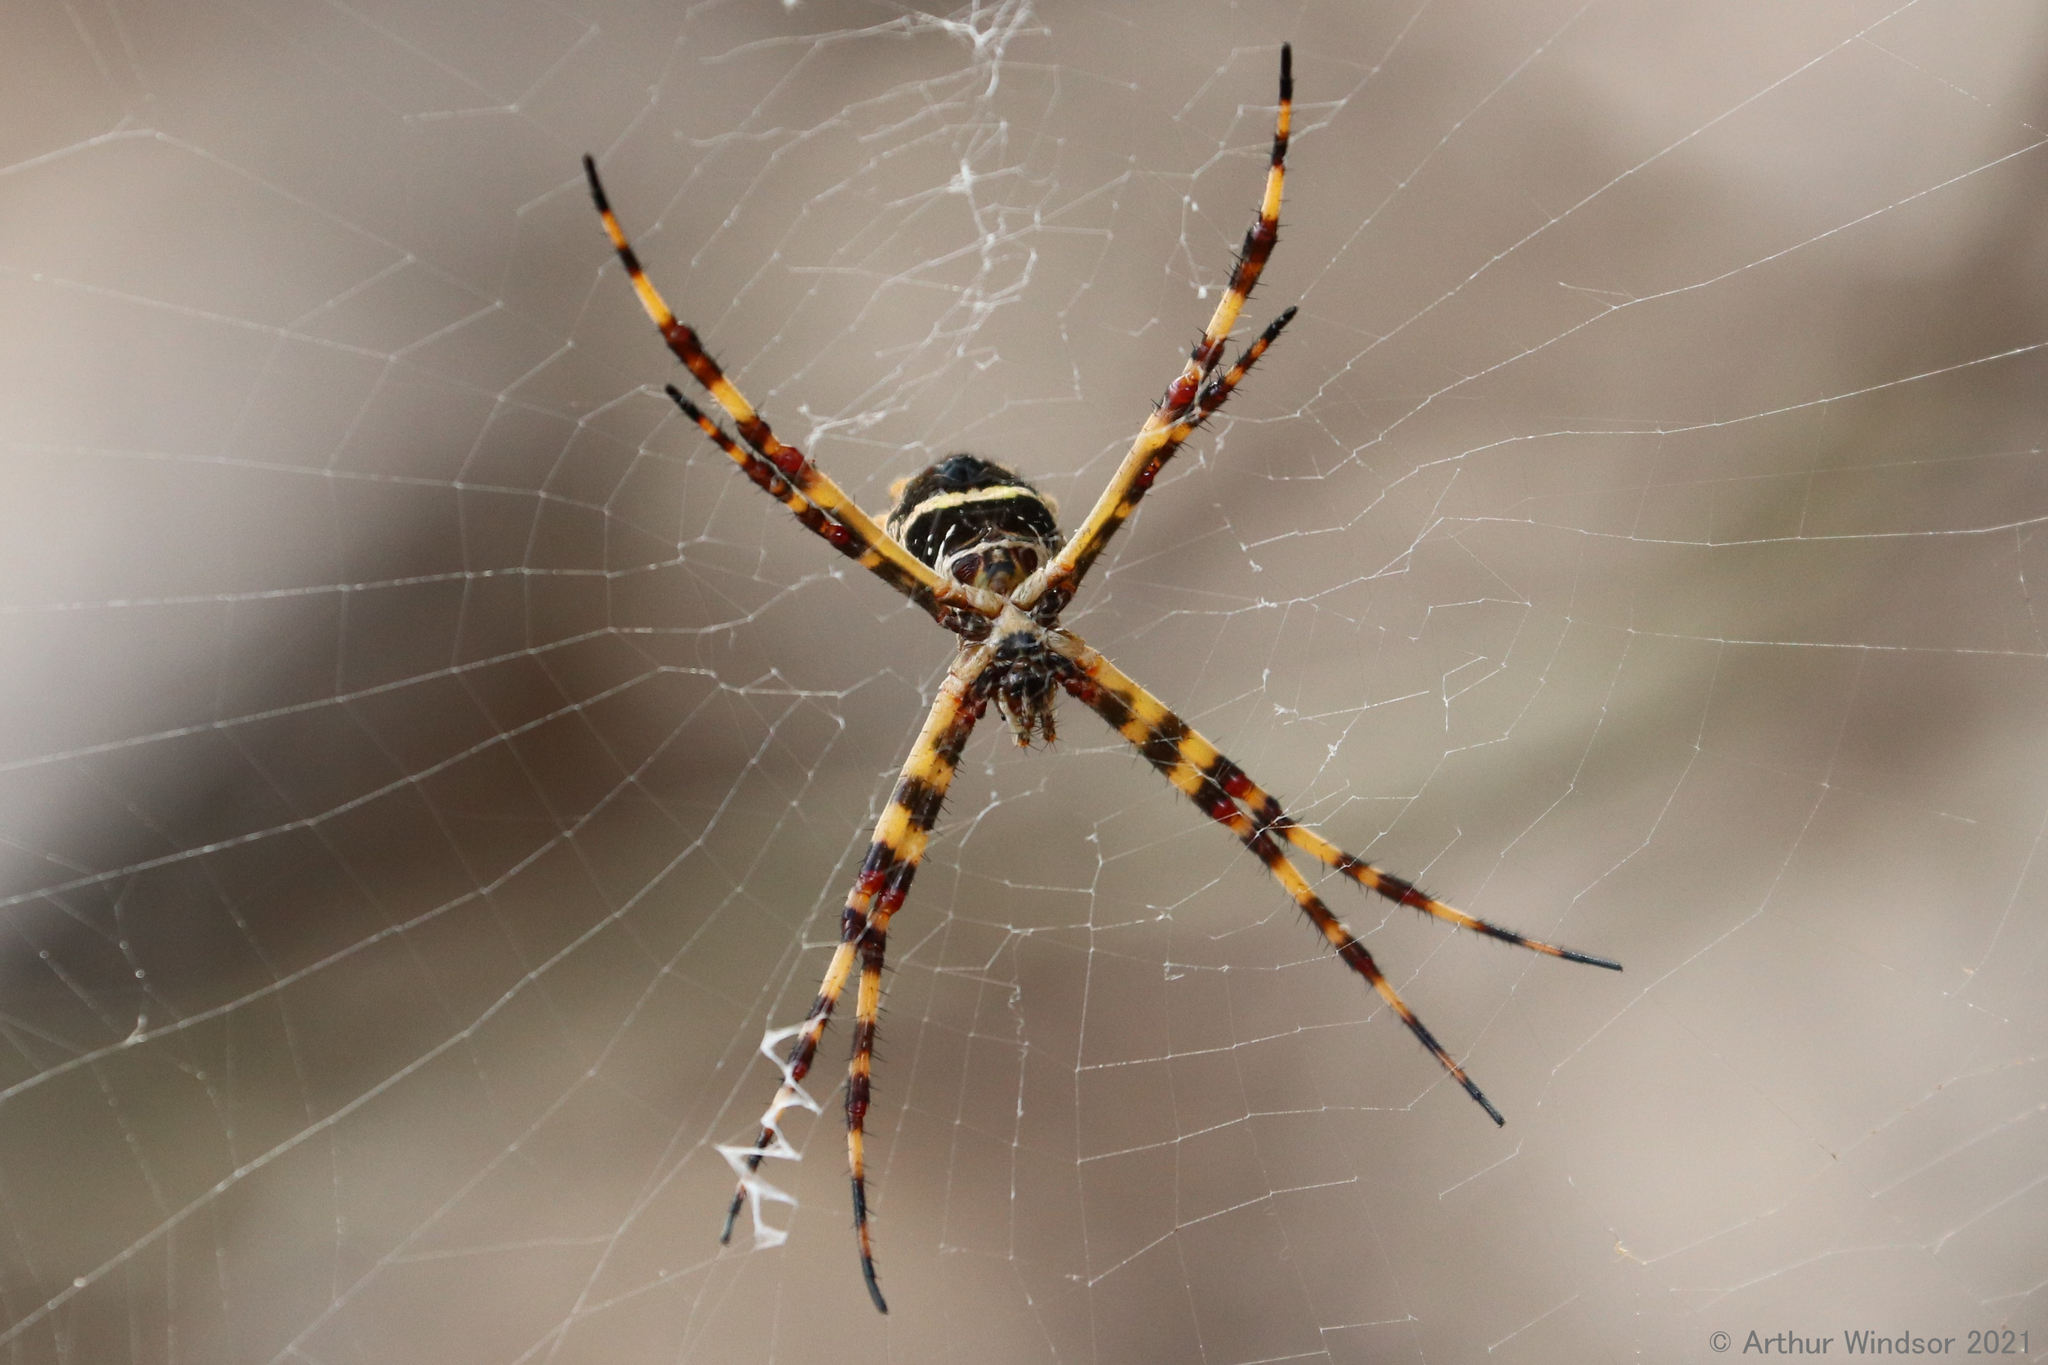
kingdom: Animalia
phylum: Arthropoda
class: Arachnida
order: Araneae
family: Araneidae
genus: Argiope
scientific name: Argiope argentata
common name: Orb weavers
